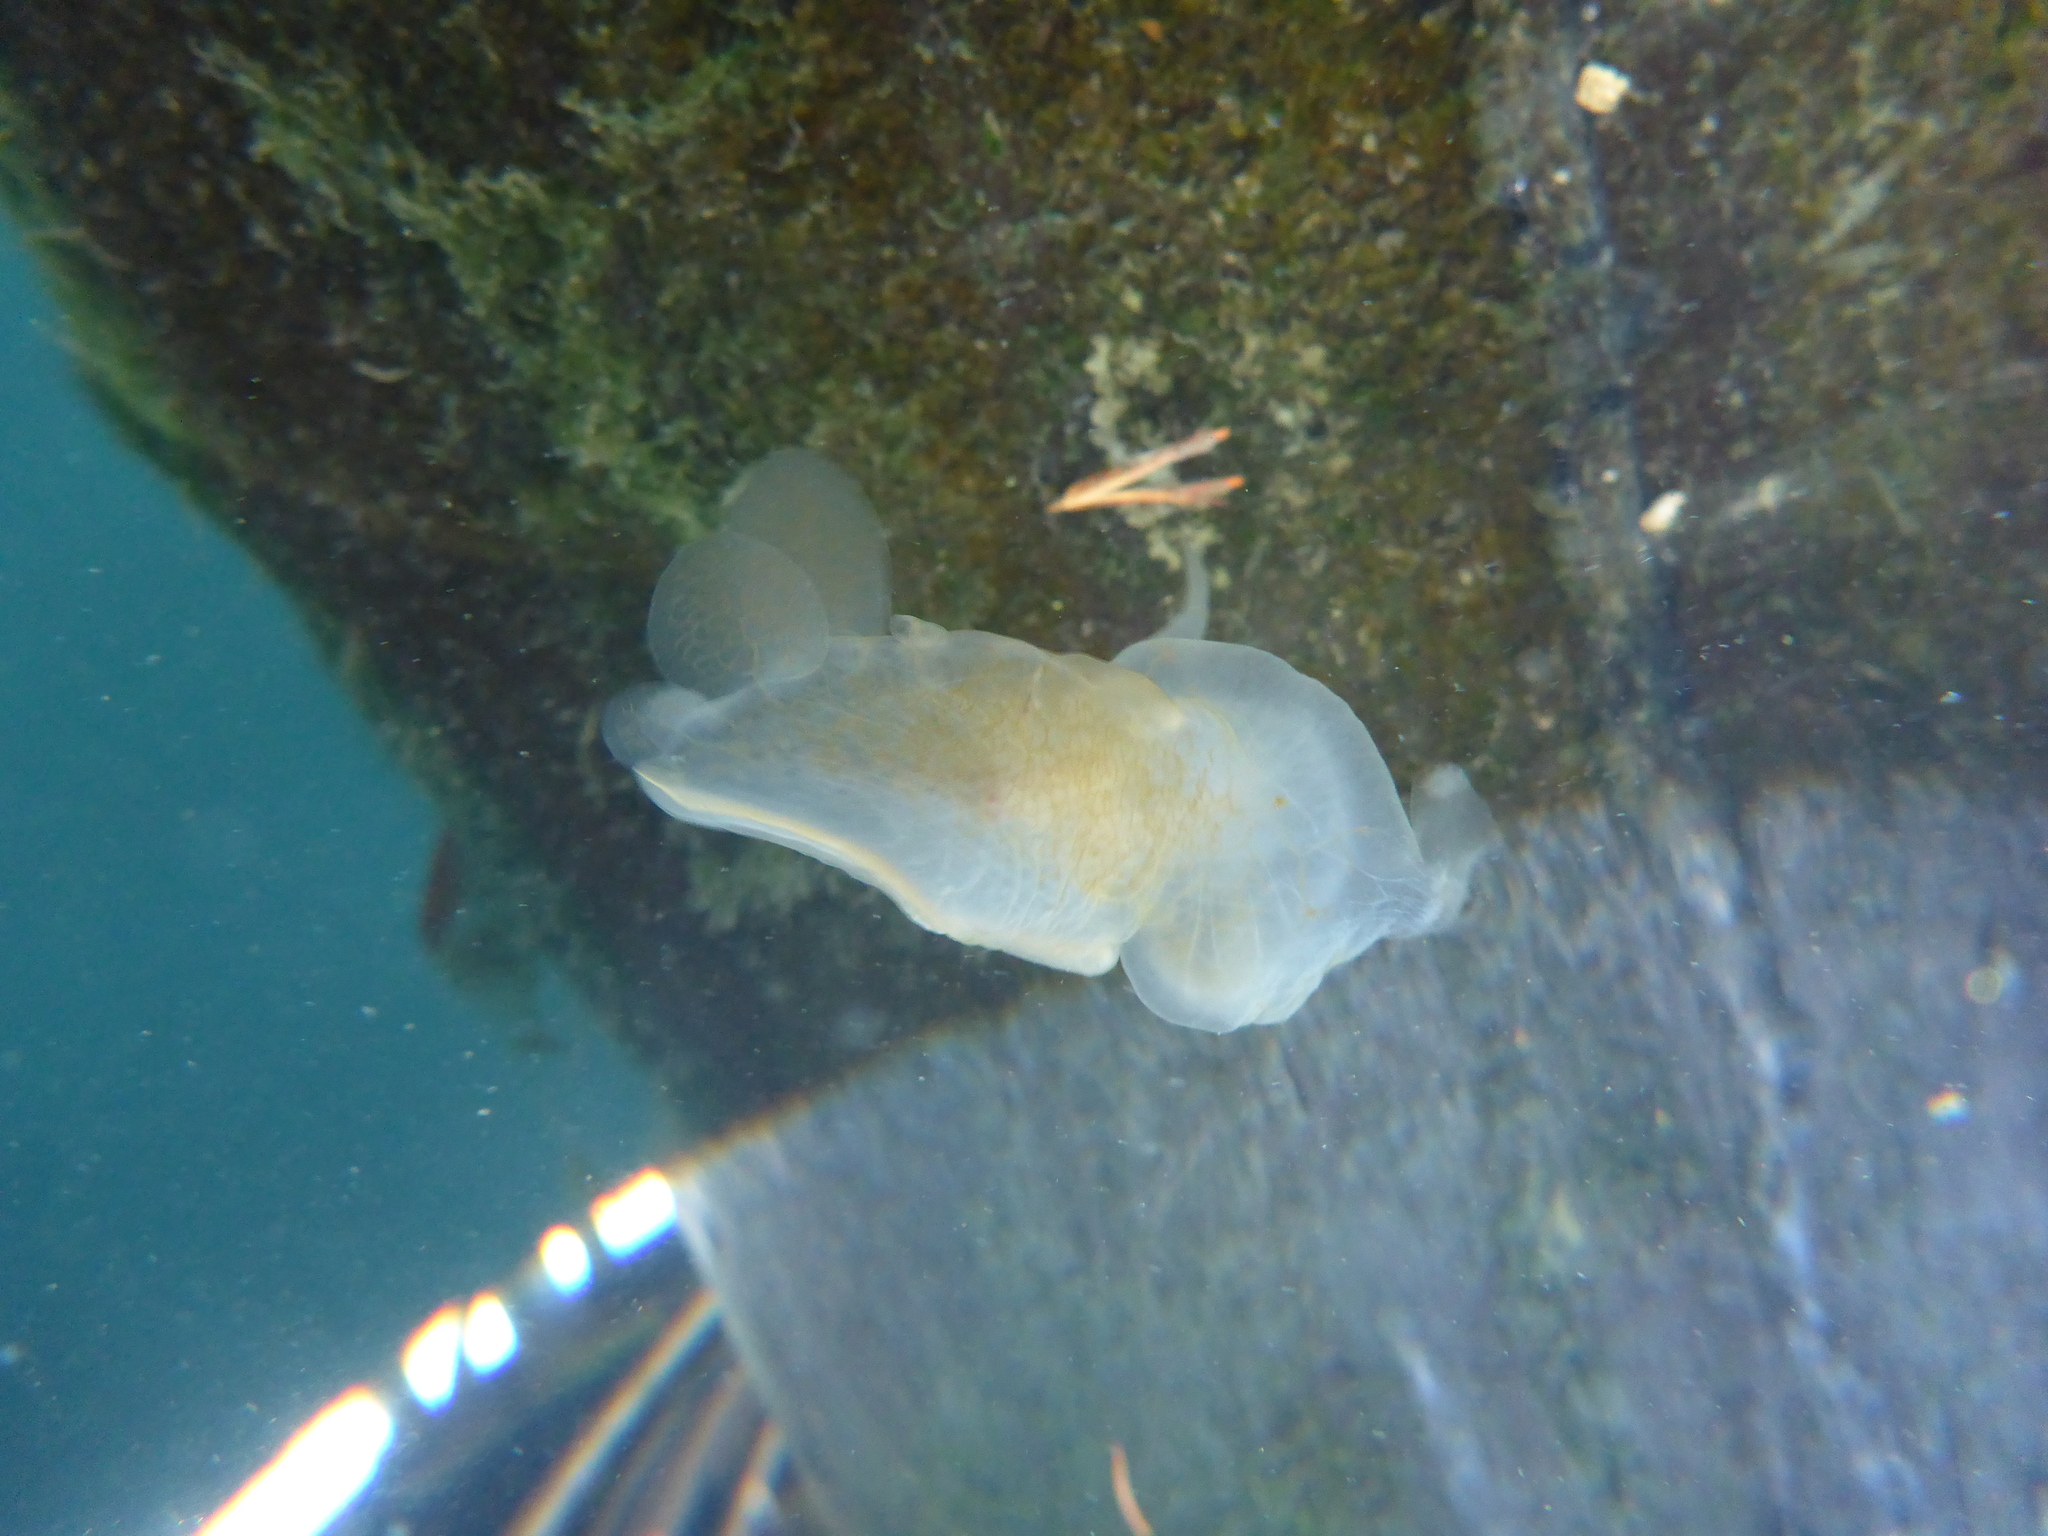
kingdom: Animalia
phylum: Mollusca
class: Gastropoda
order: Nudibranchia
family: Tethydidae
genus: Melibe
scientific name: Melibe leonina
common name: Lion nudibranch
